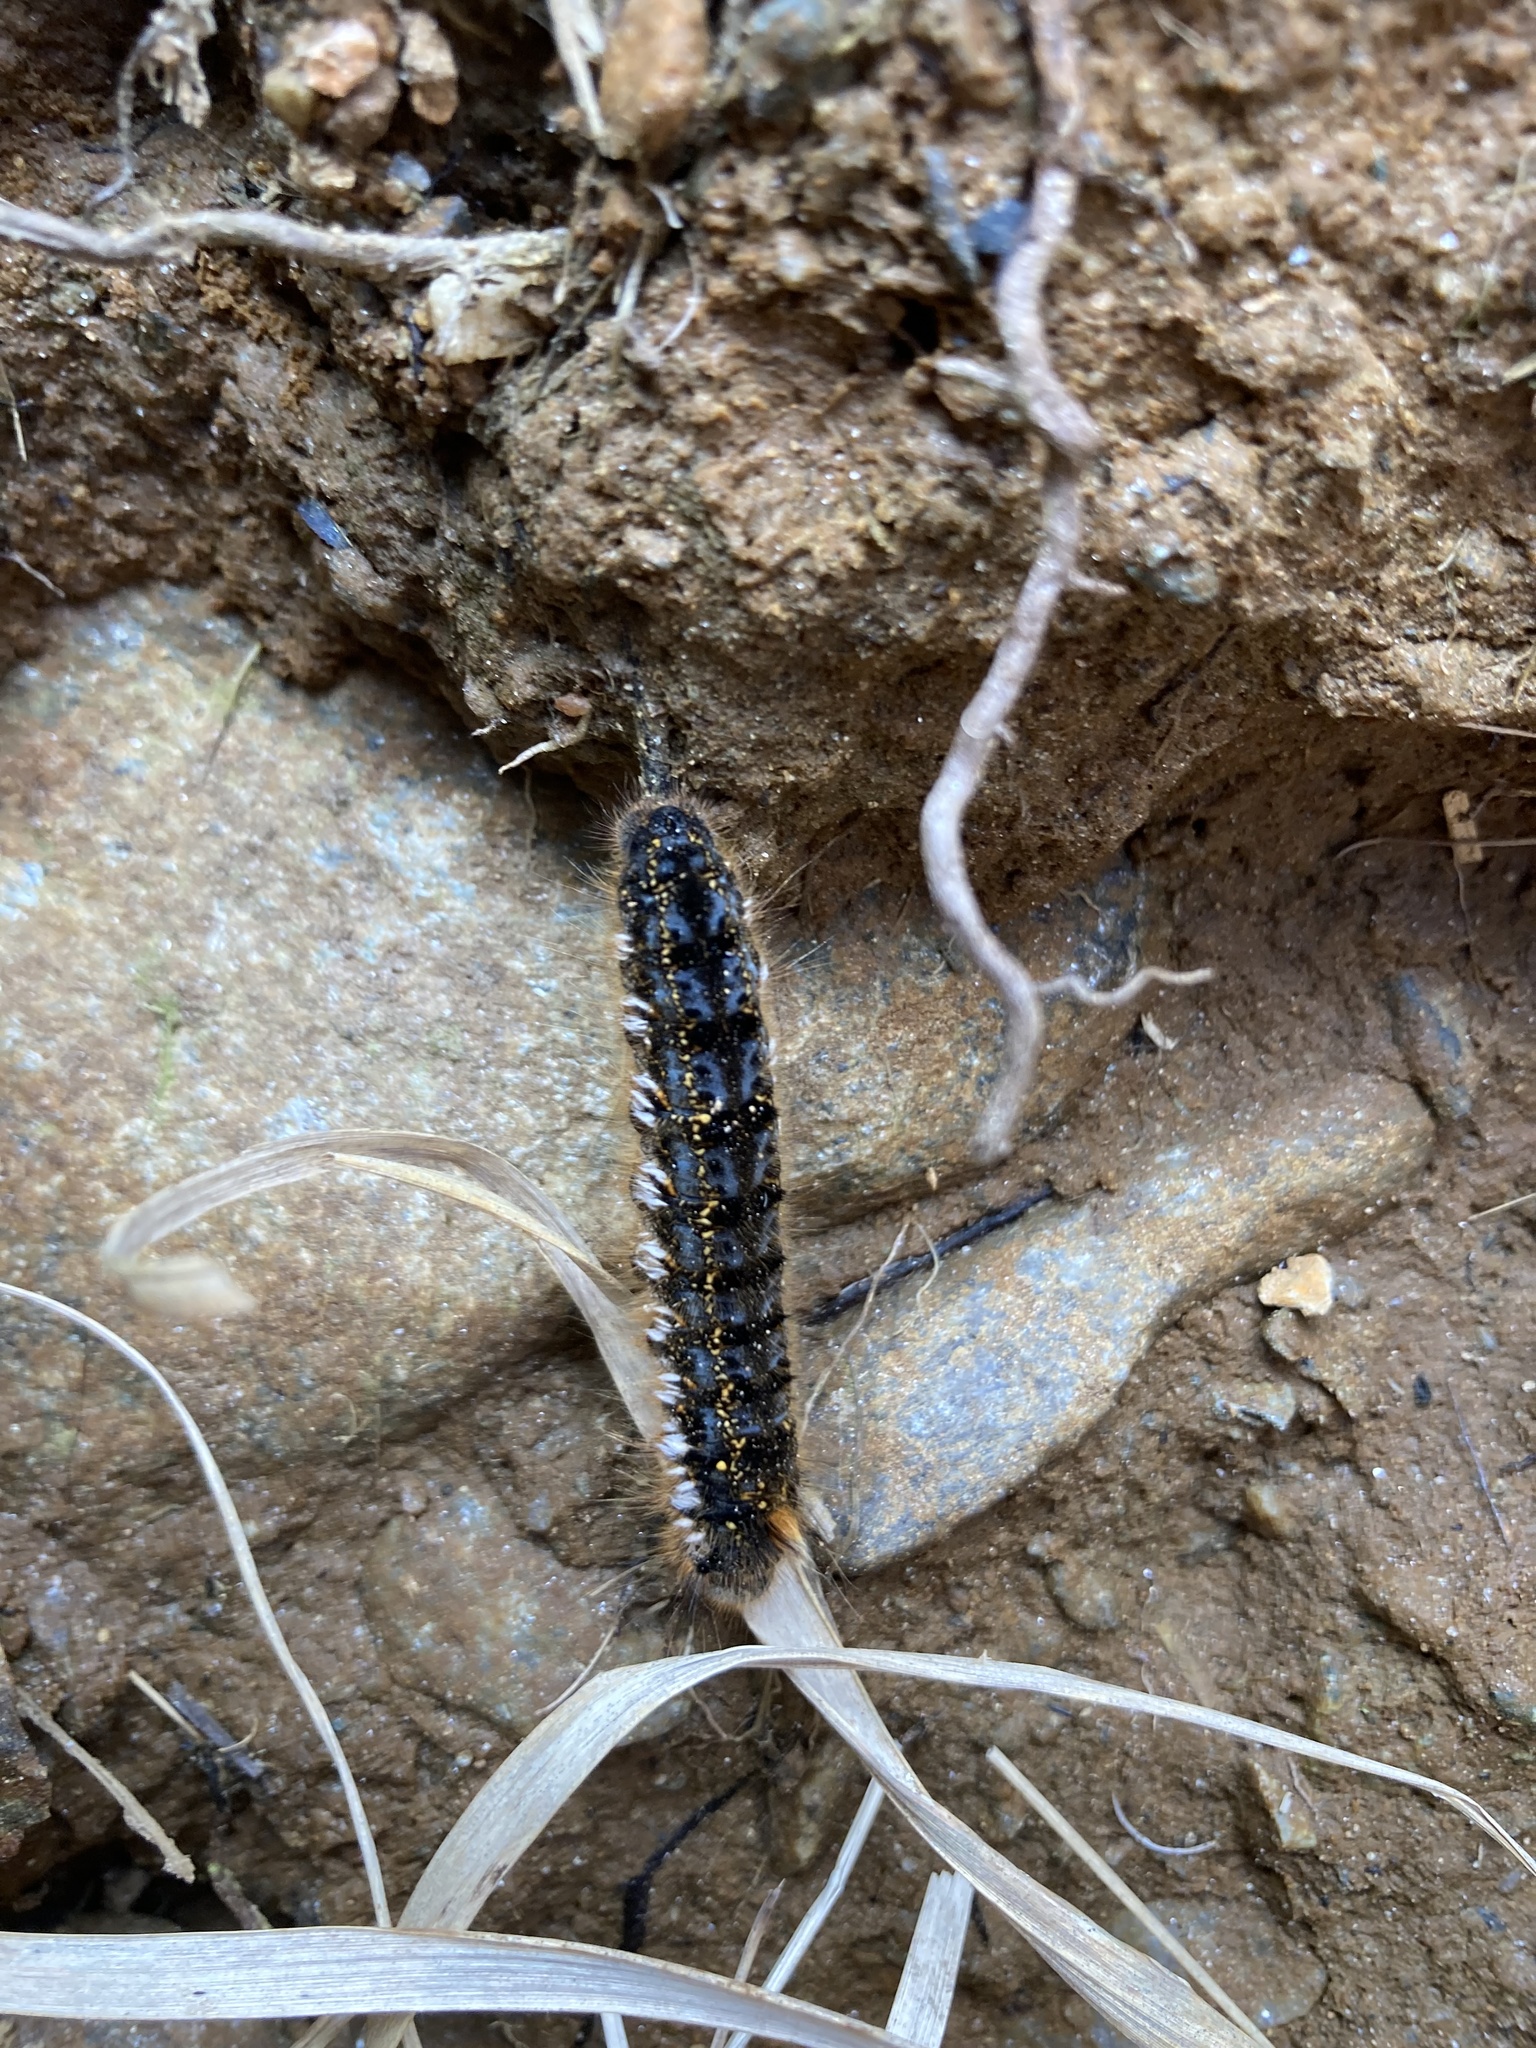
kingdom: Animalia
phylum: Arthropoda
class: Insecta
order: Lepidoptera
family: Lasiocampidae
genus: Euthrix
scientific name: Euthrix potatoria
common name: Drinker
